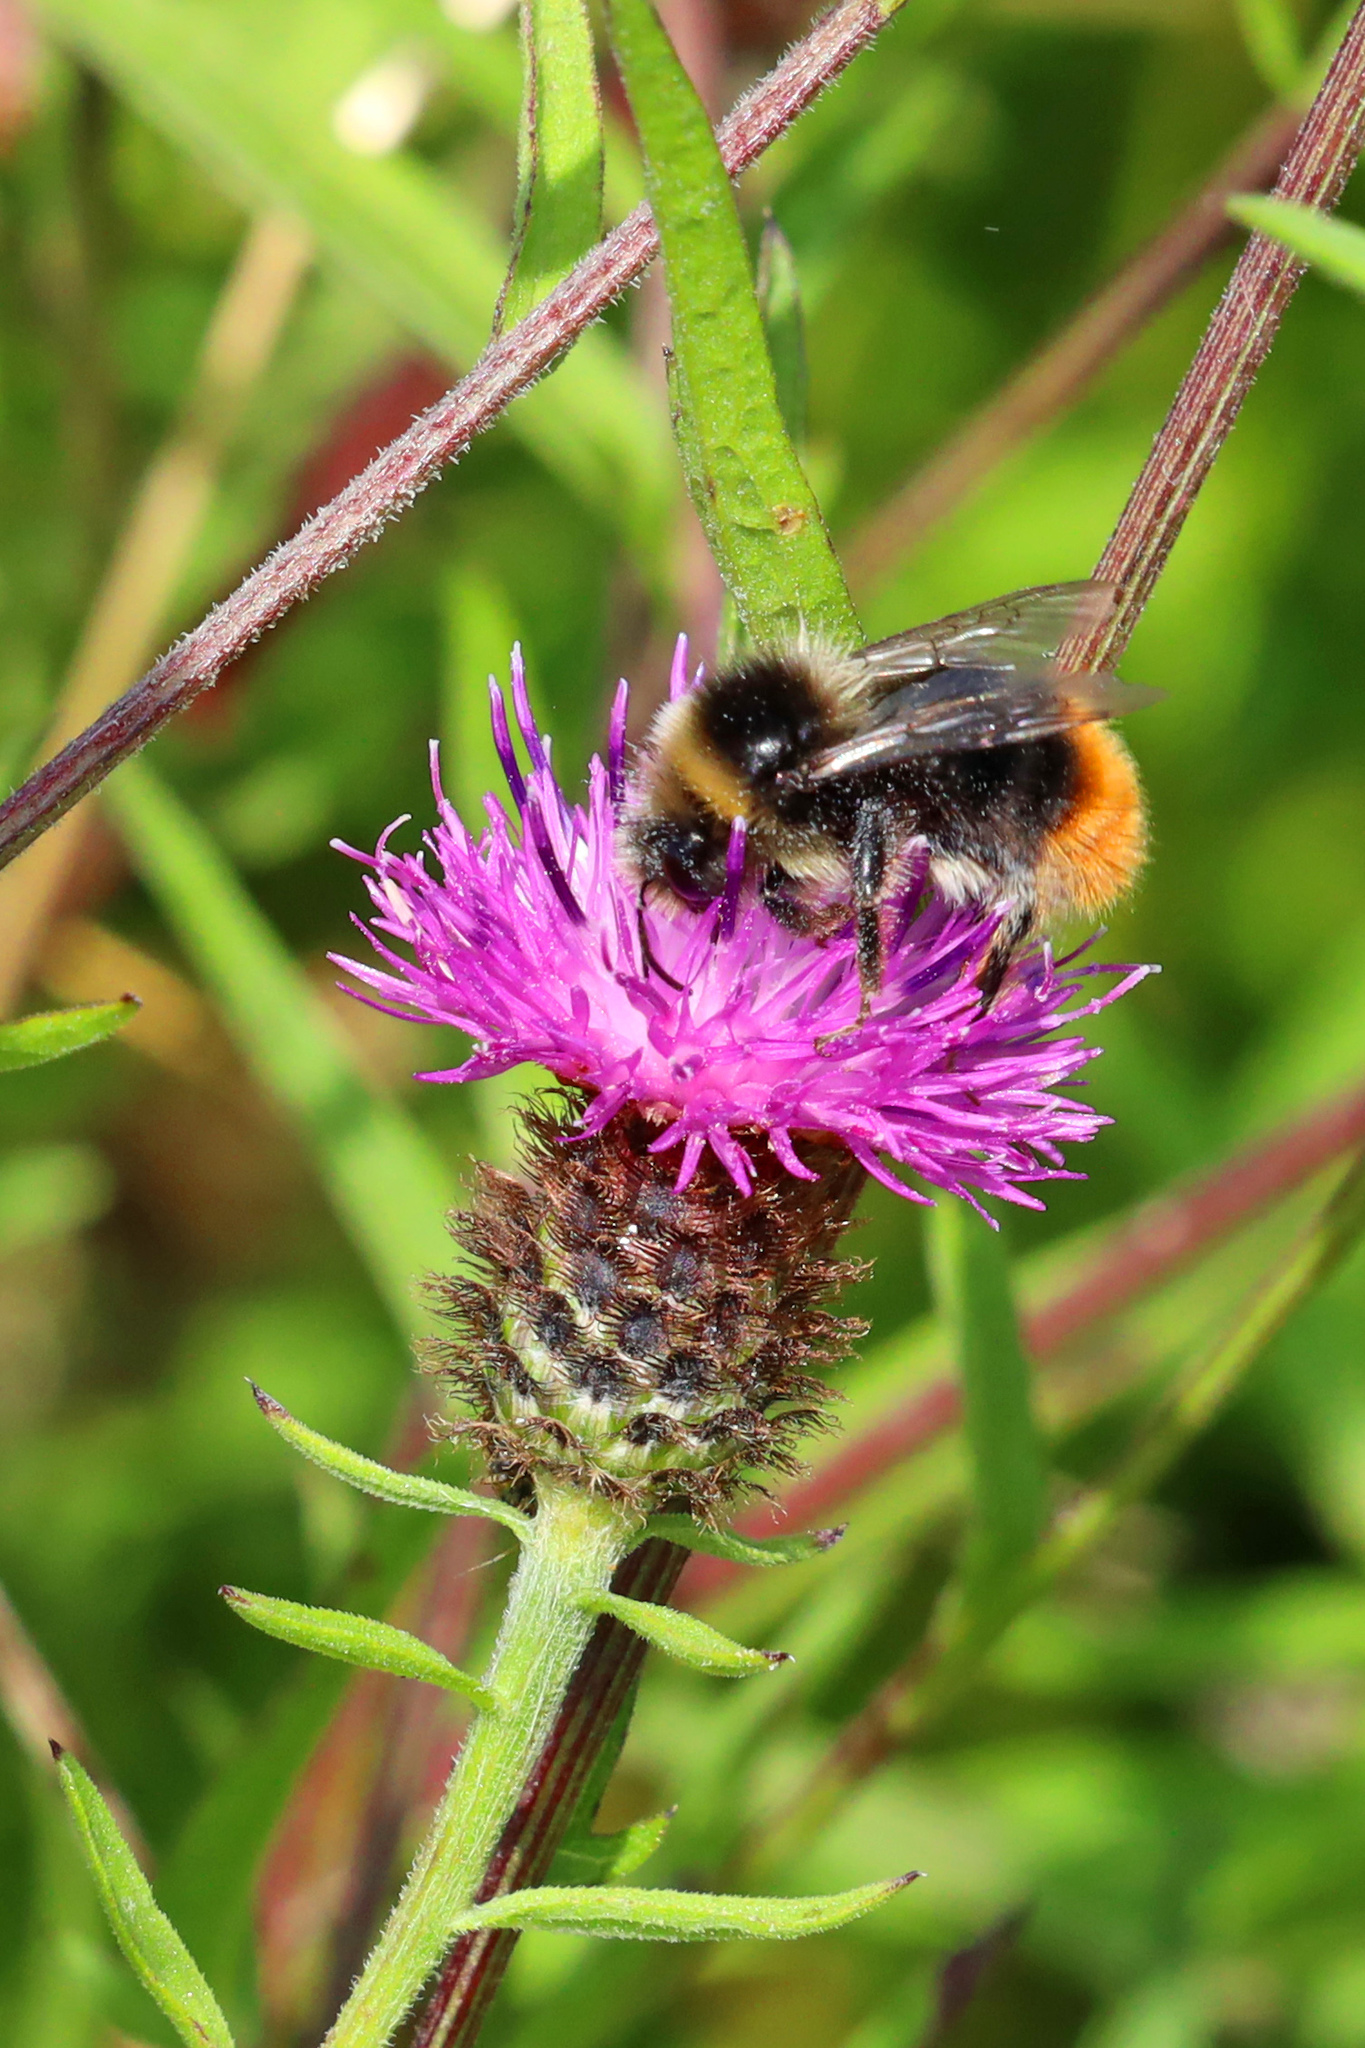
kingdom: Animalia
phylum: Arthropoda
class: Insecta
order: Hymenoptera
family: Apidae
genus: Bombus
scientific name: Bombus lapidarius
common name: Large red-tailed humble-bee
